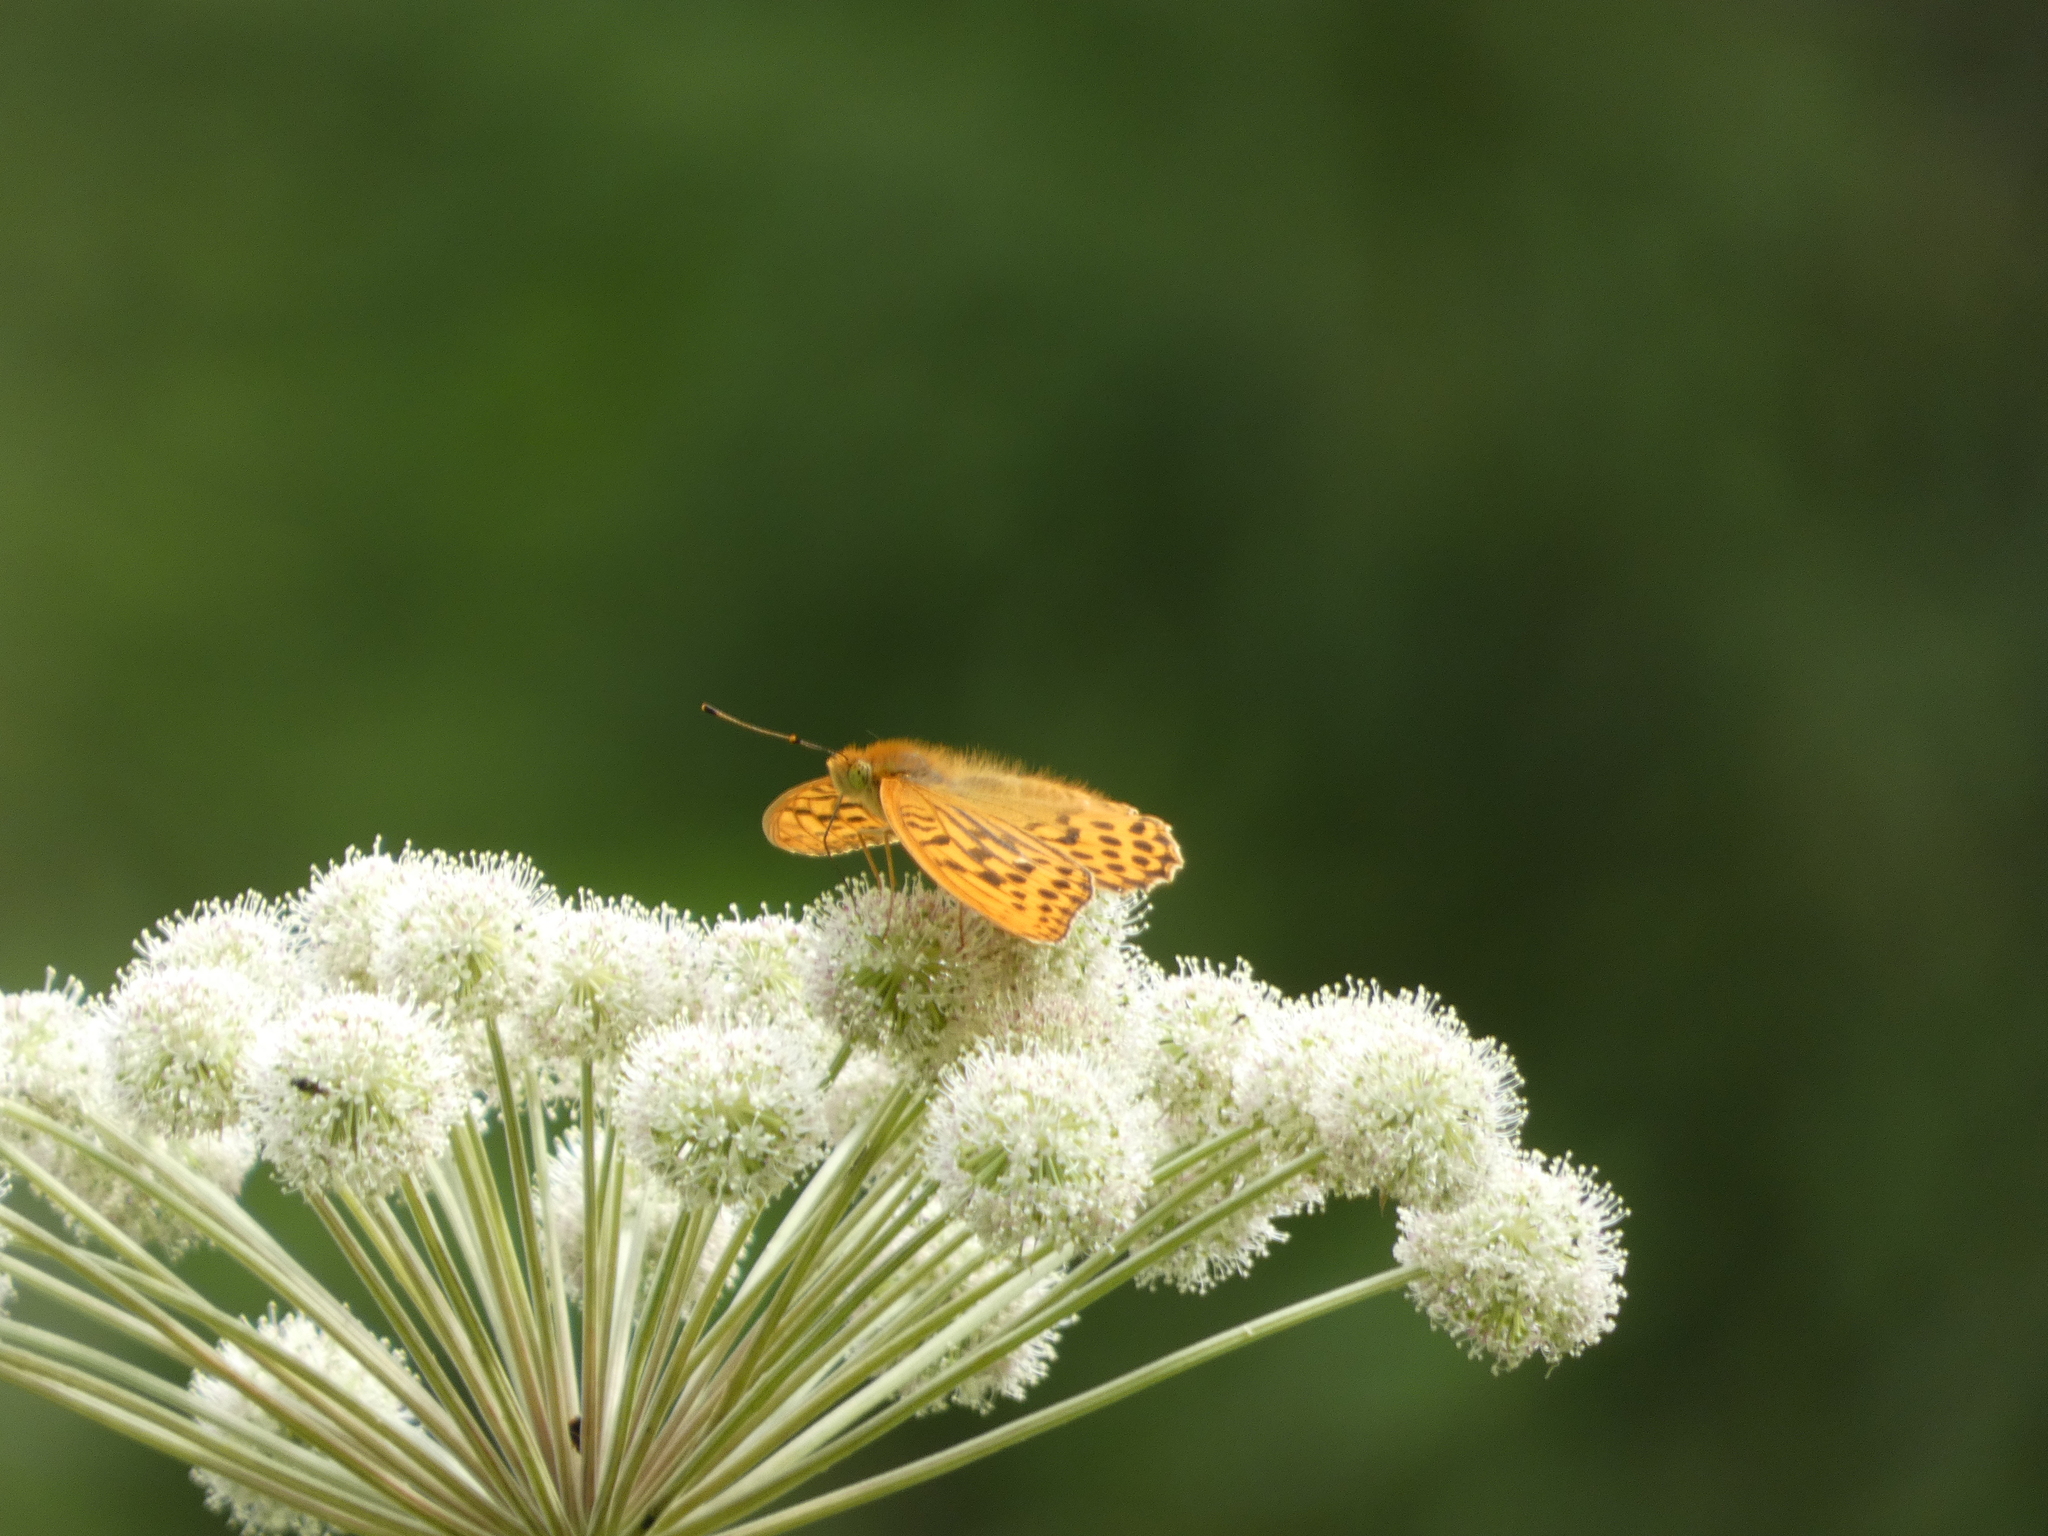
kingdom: Animalia
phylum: Arthropoda
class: Insecta
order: Lepidoptera
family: Nymphalidae
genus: Argynnis
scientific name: Argynnis paphia
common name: Silver-washed fritillary
